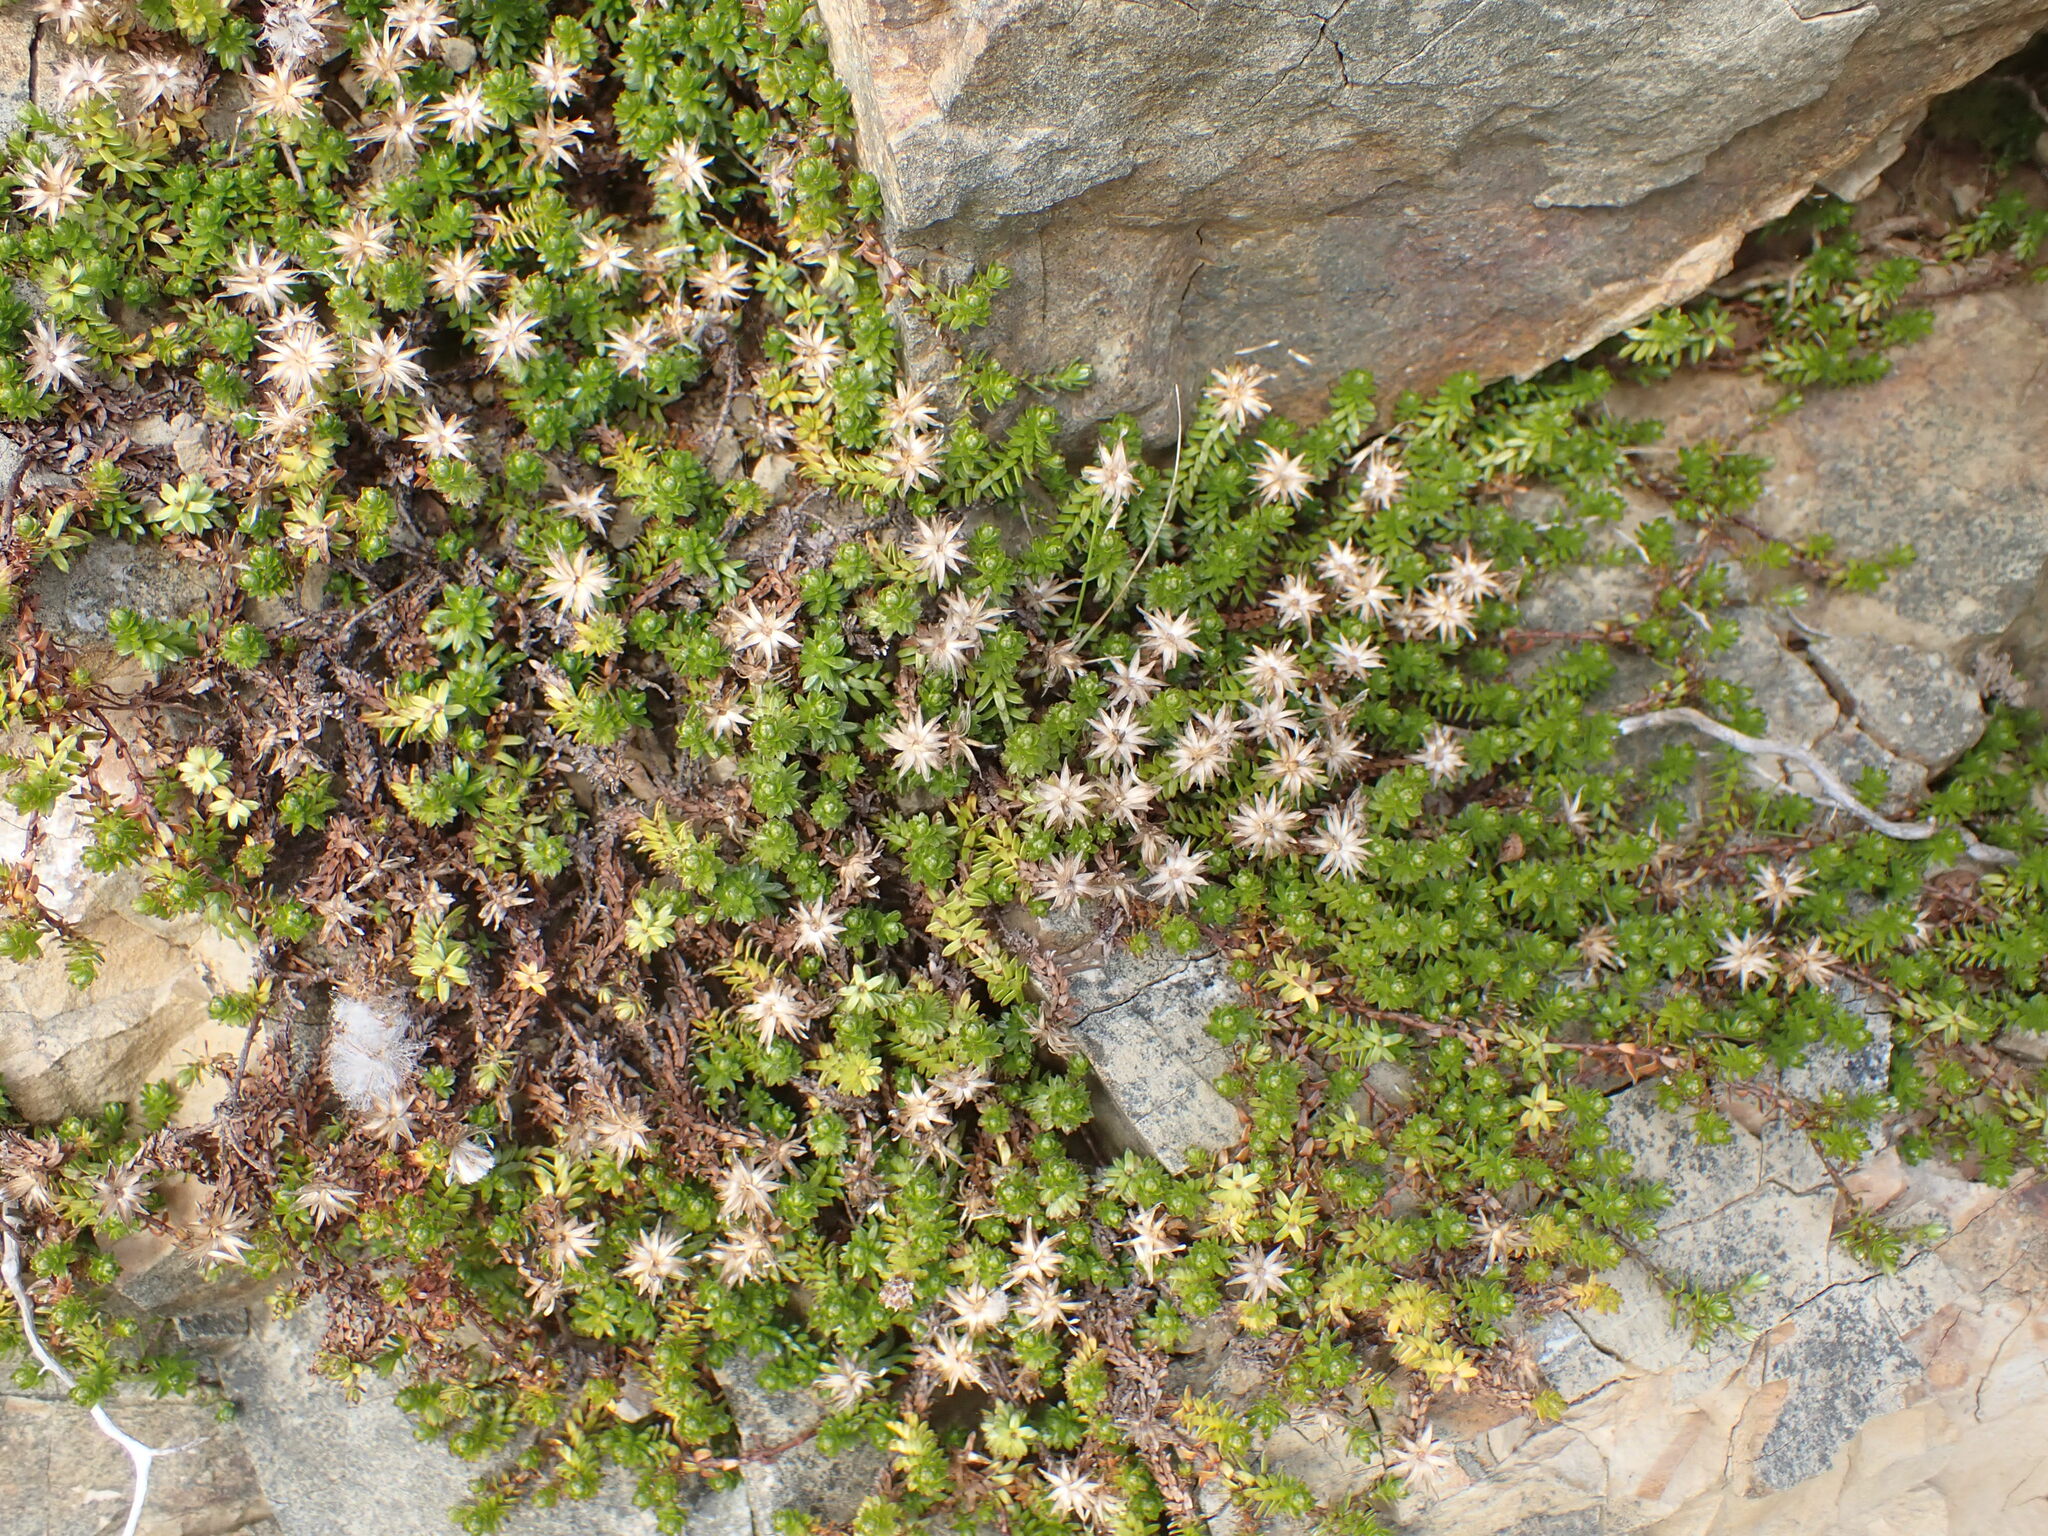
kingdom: Plantae
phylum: Tracheophyta
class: Magnoliopsida
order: Asterales
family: Asteraceae
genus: Raoulia
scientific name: Raoulia glabra
